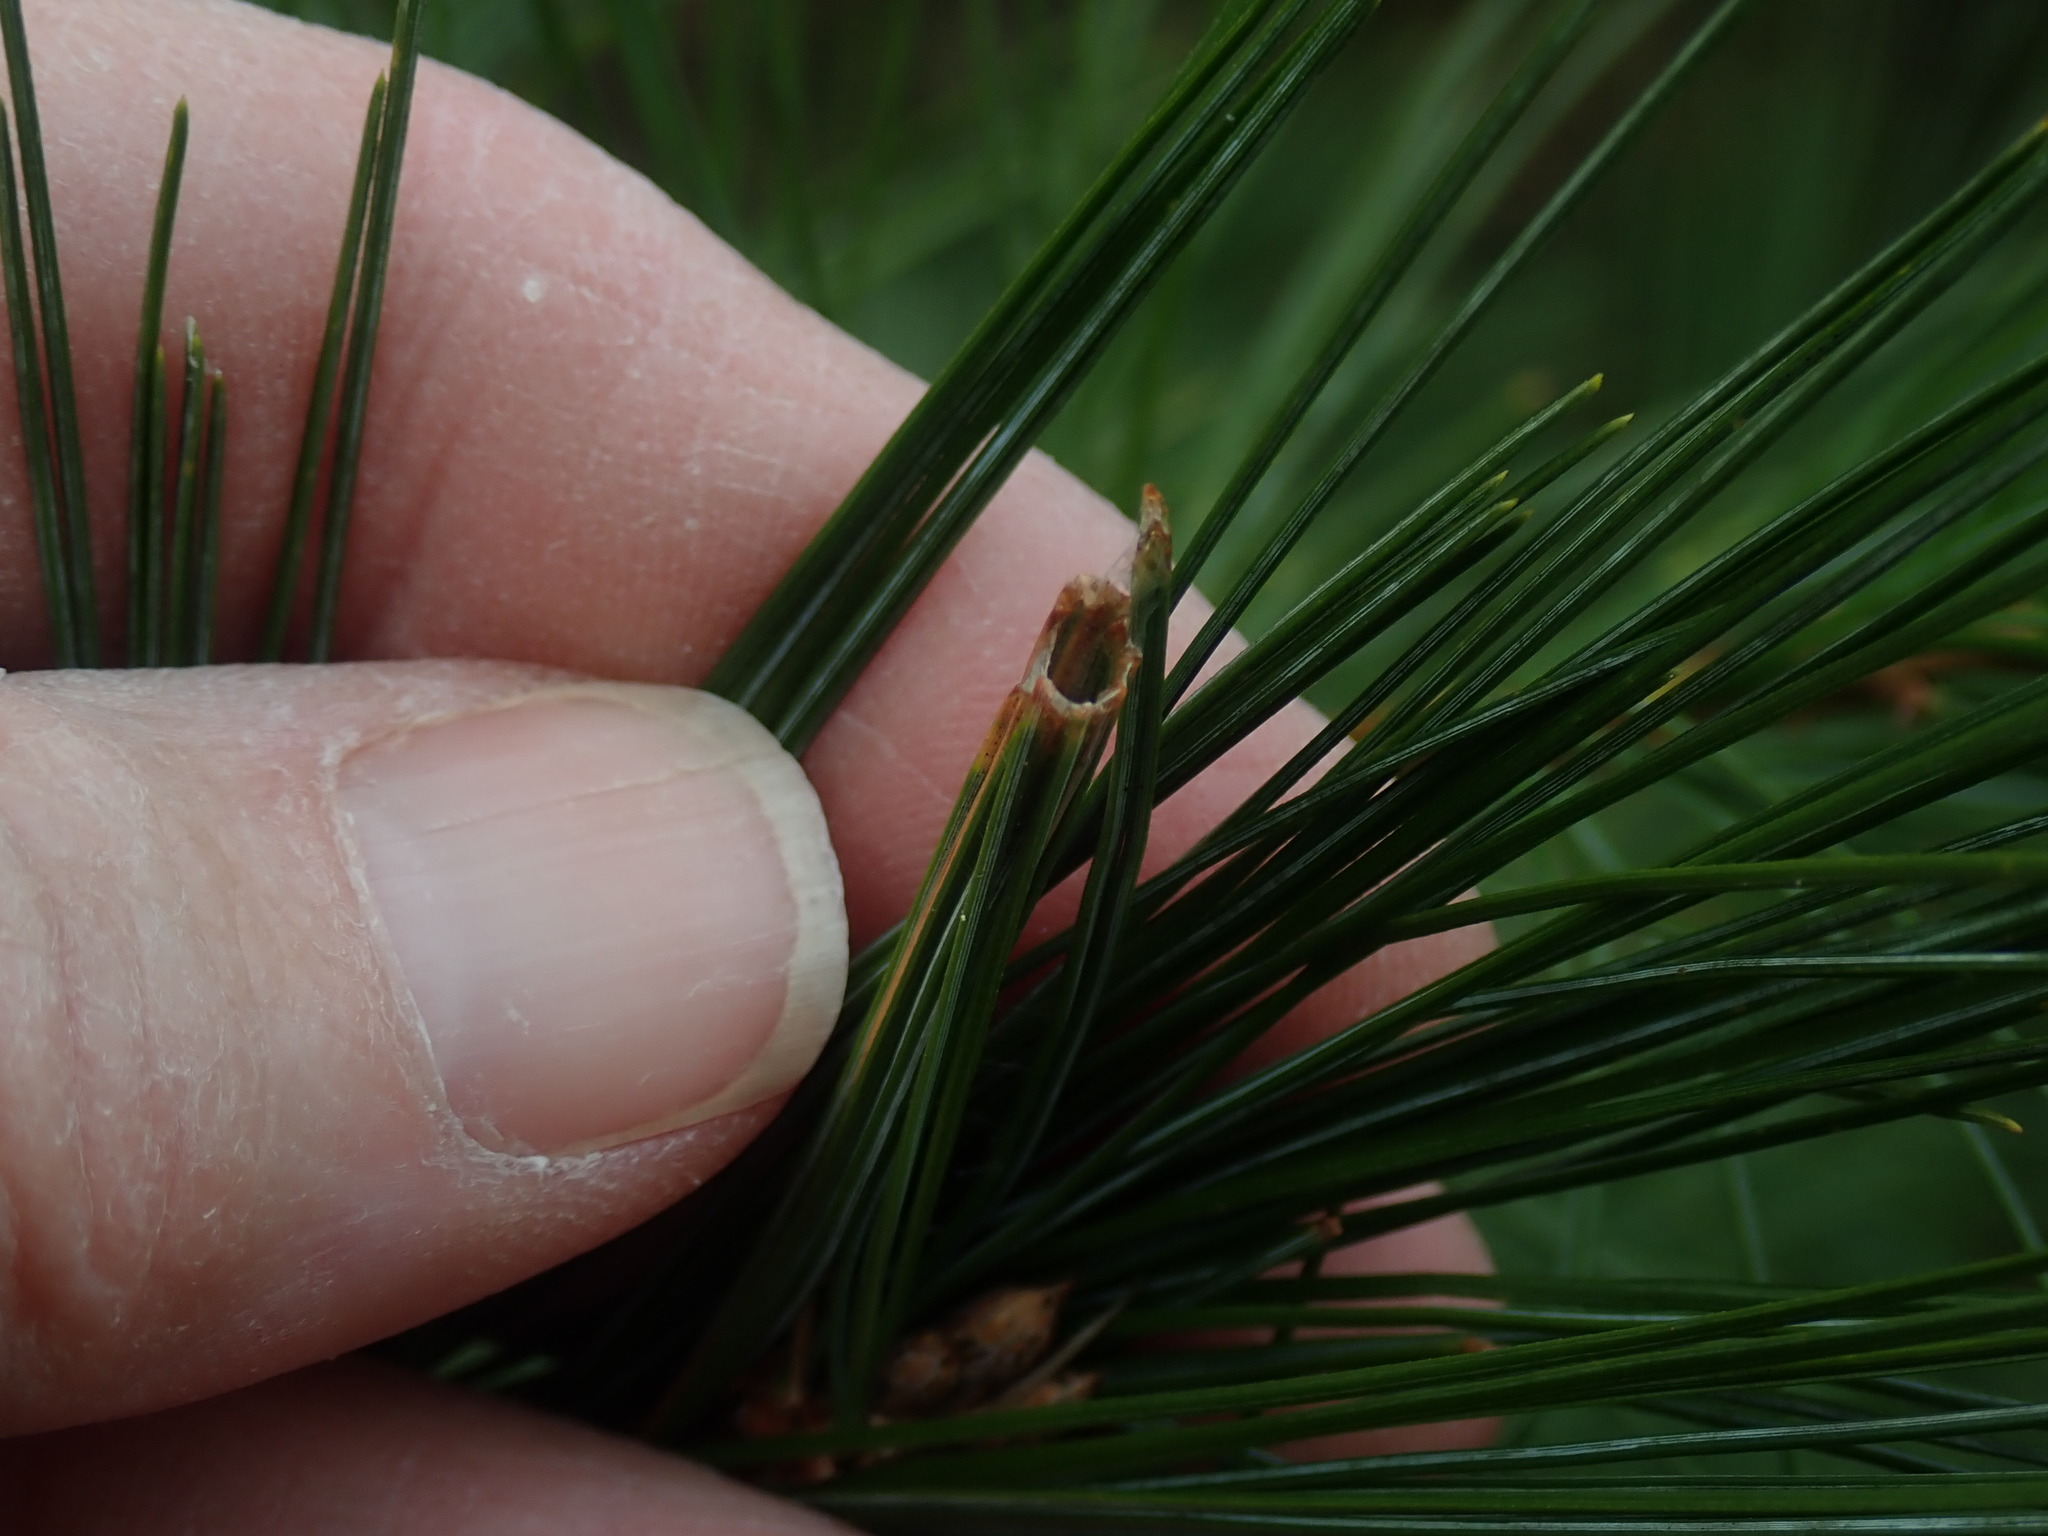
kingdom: Animalia
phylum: Arthropoda
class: Insecta
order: Lepidoptera
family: Tortricidae
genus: Argyrotaenia
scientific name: Argyrotaenia pinatubana
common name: Pine tube moth
